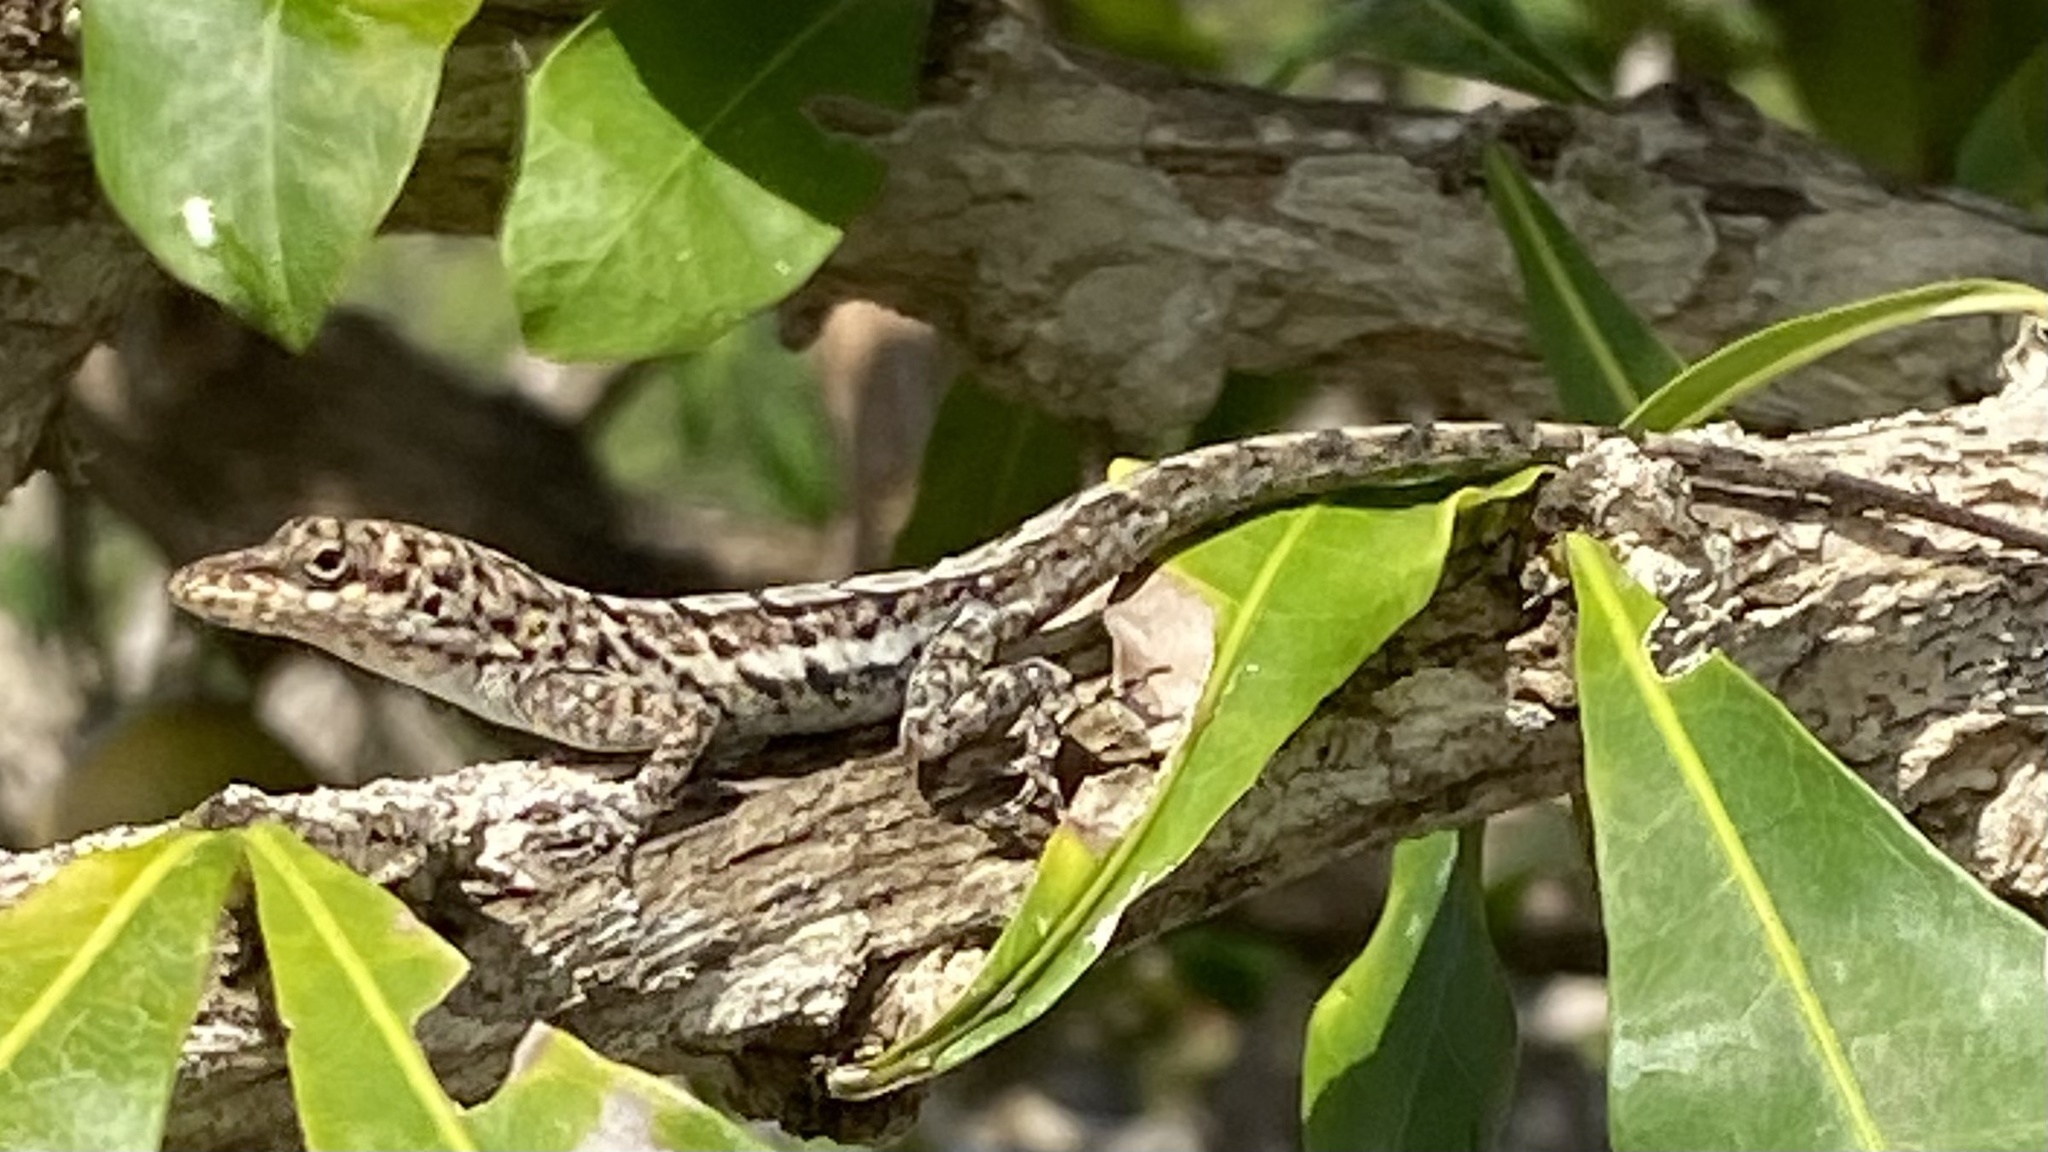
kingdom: Animalia
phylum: Chordata
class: Squamata
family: Dactyloidae
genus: Anolis
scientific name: Anolis bonairensis
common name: Ruthven's anole
